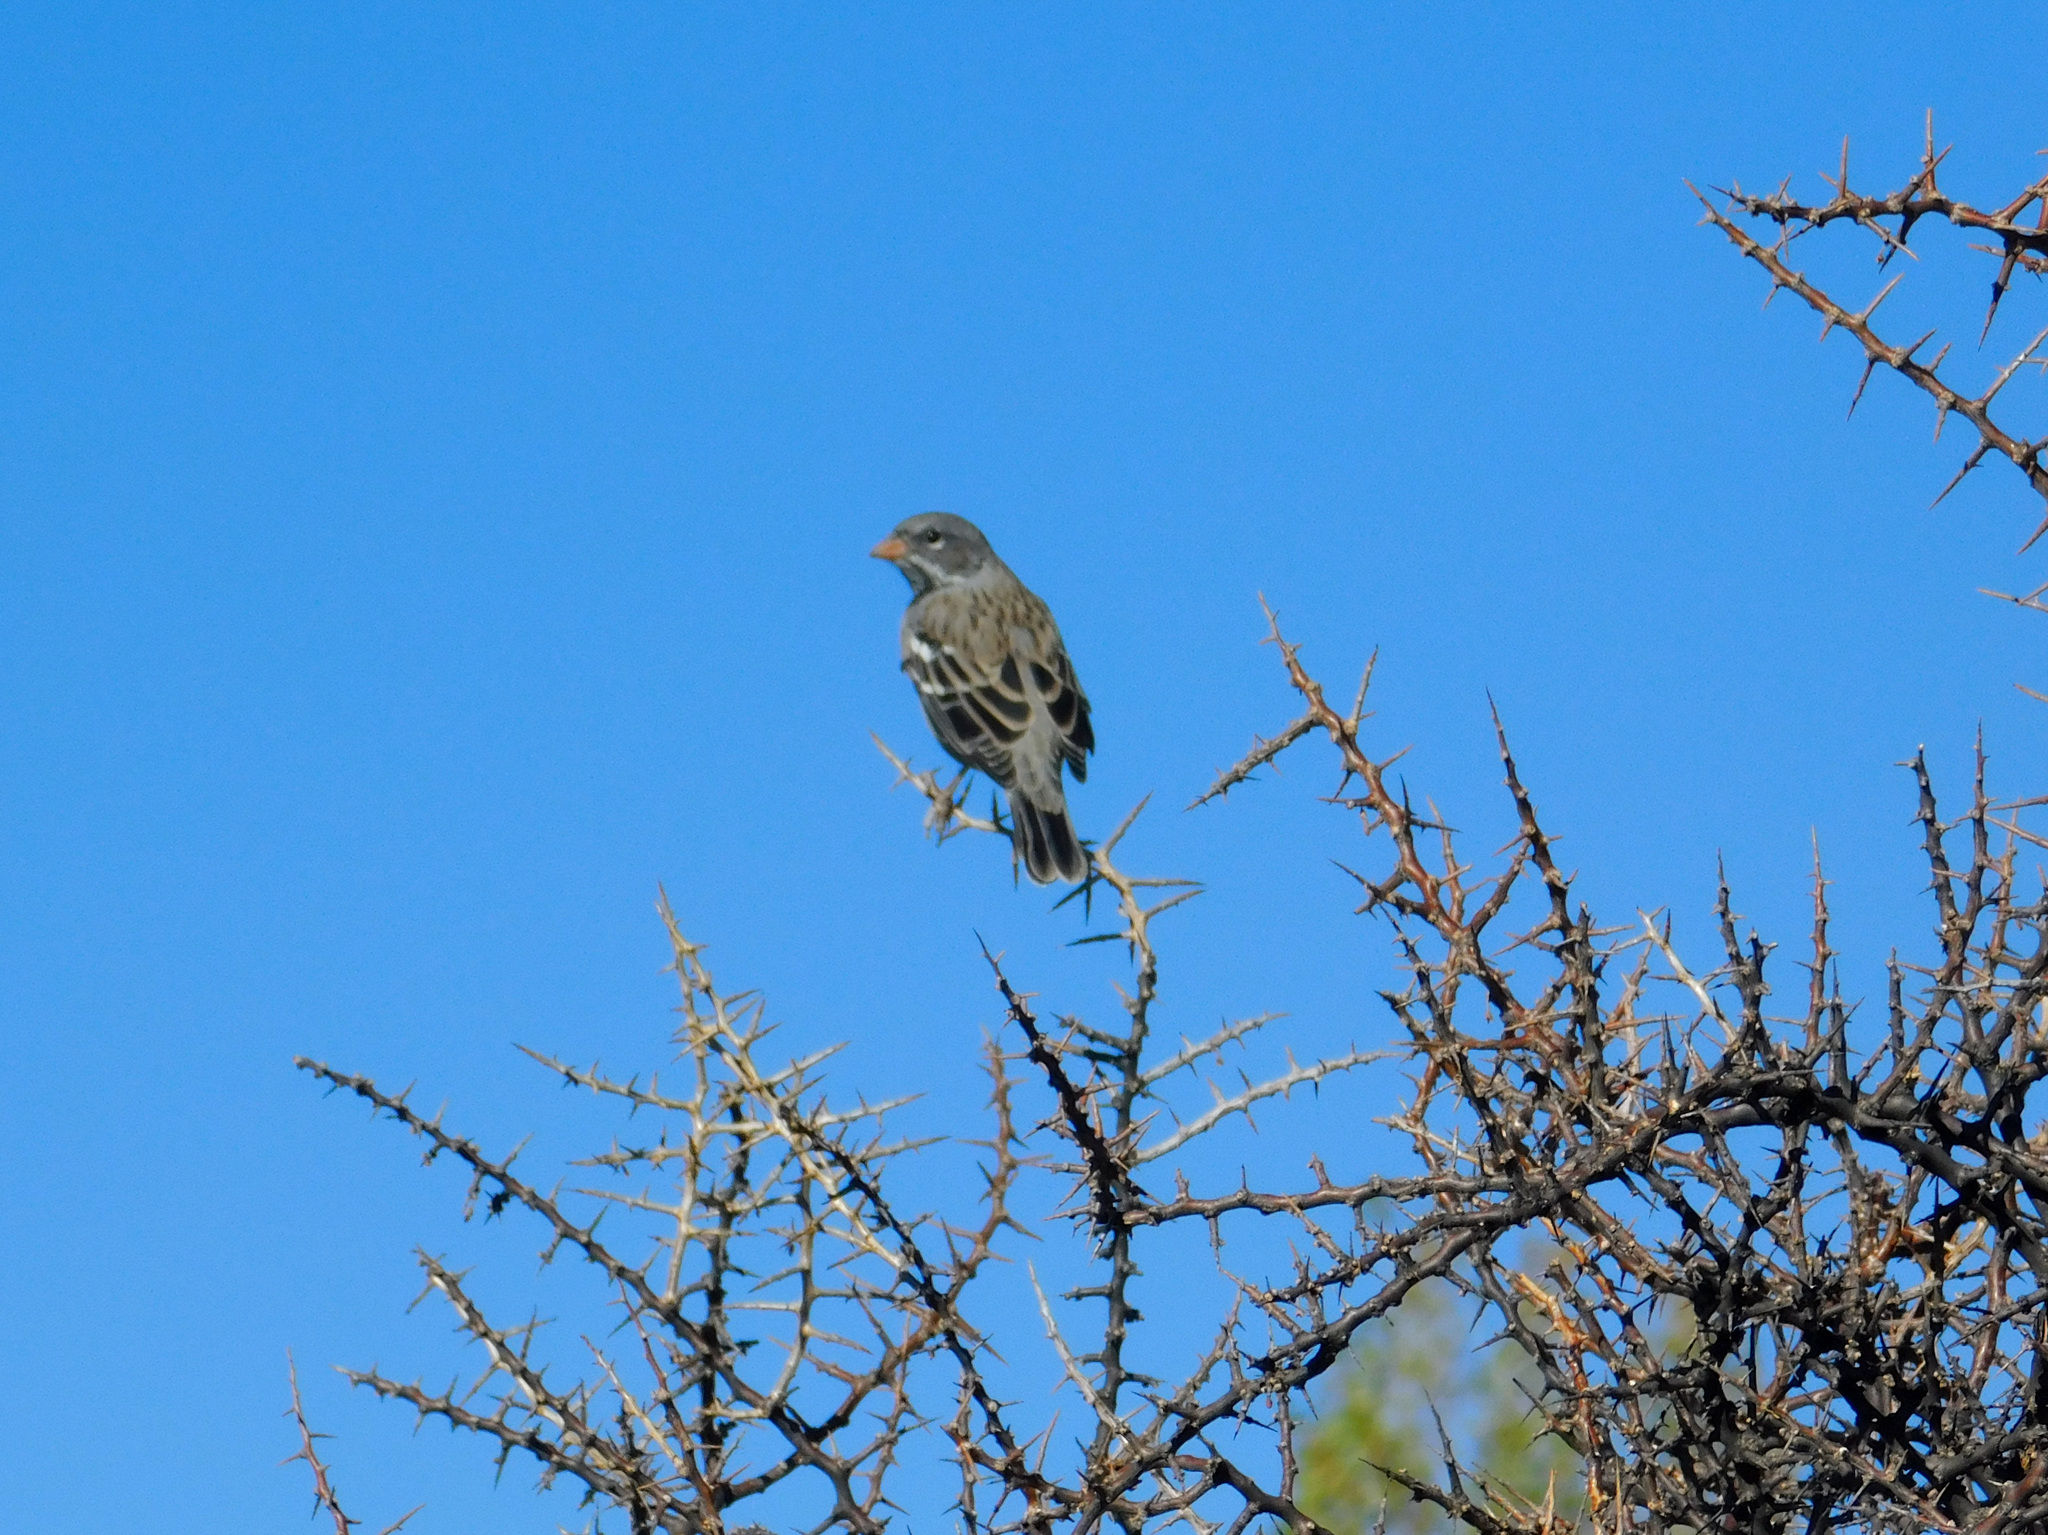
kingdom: Animalia
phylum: Chordata
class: Aves
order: Passeriformes
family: Thraupidae
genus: Rhopospina
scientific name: Rhopospina fruticeti
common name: Mourning sierra finch
